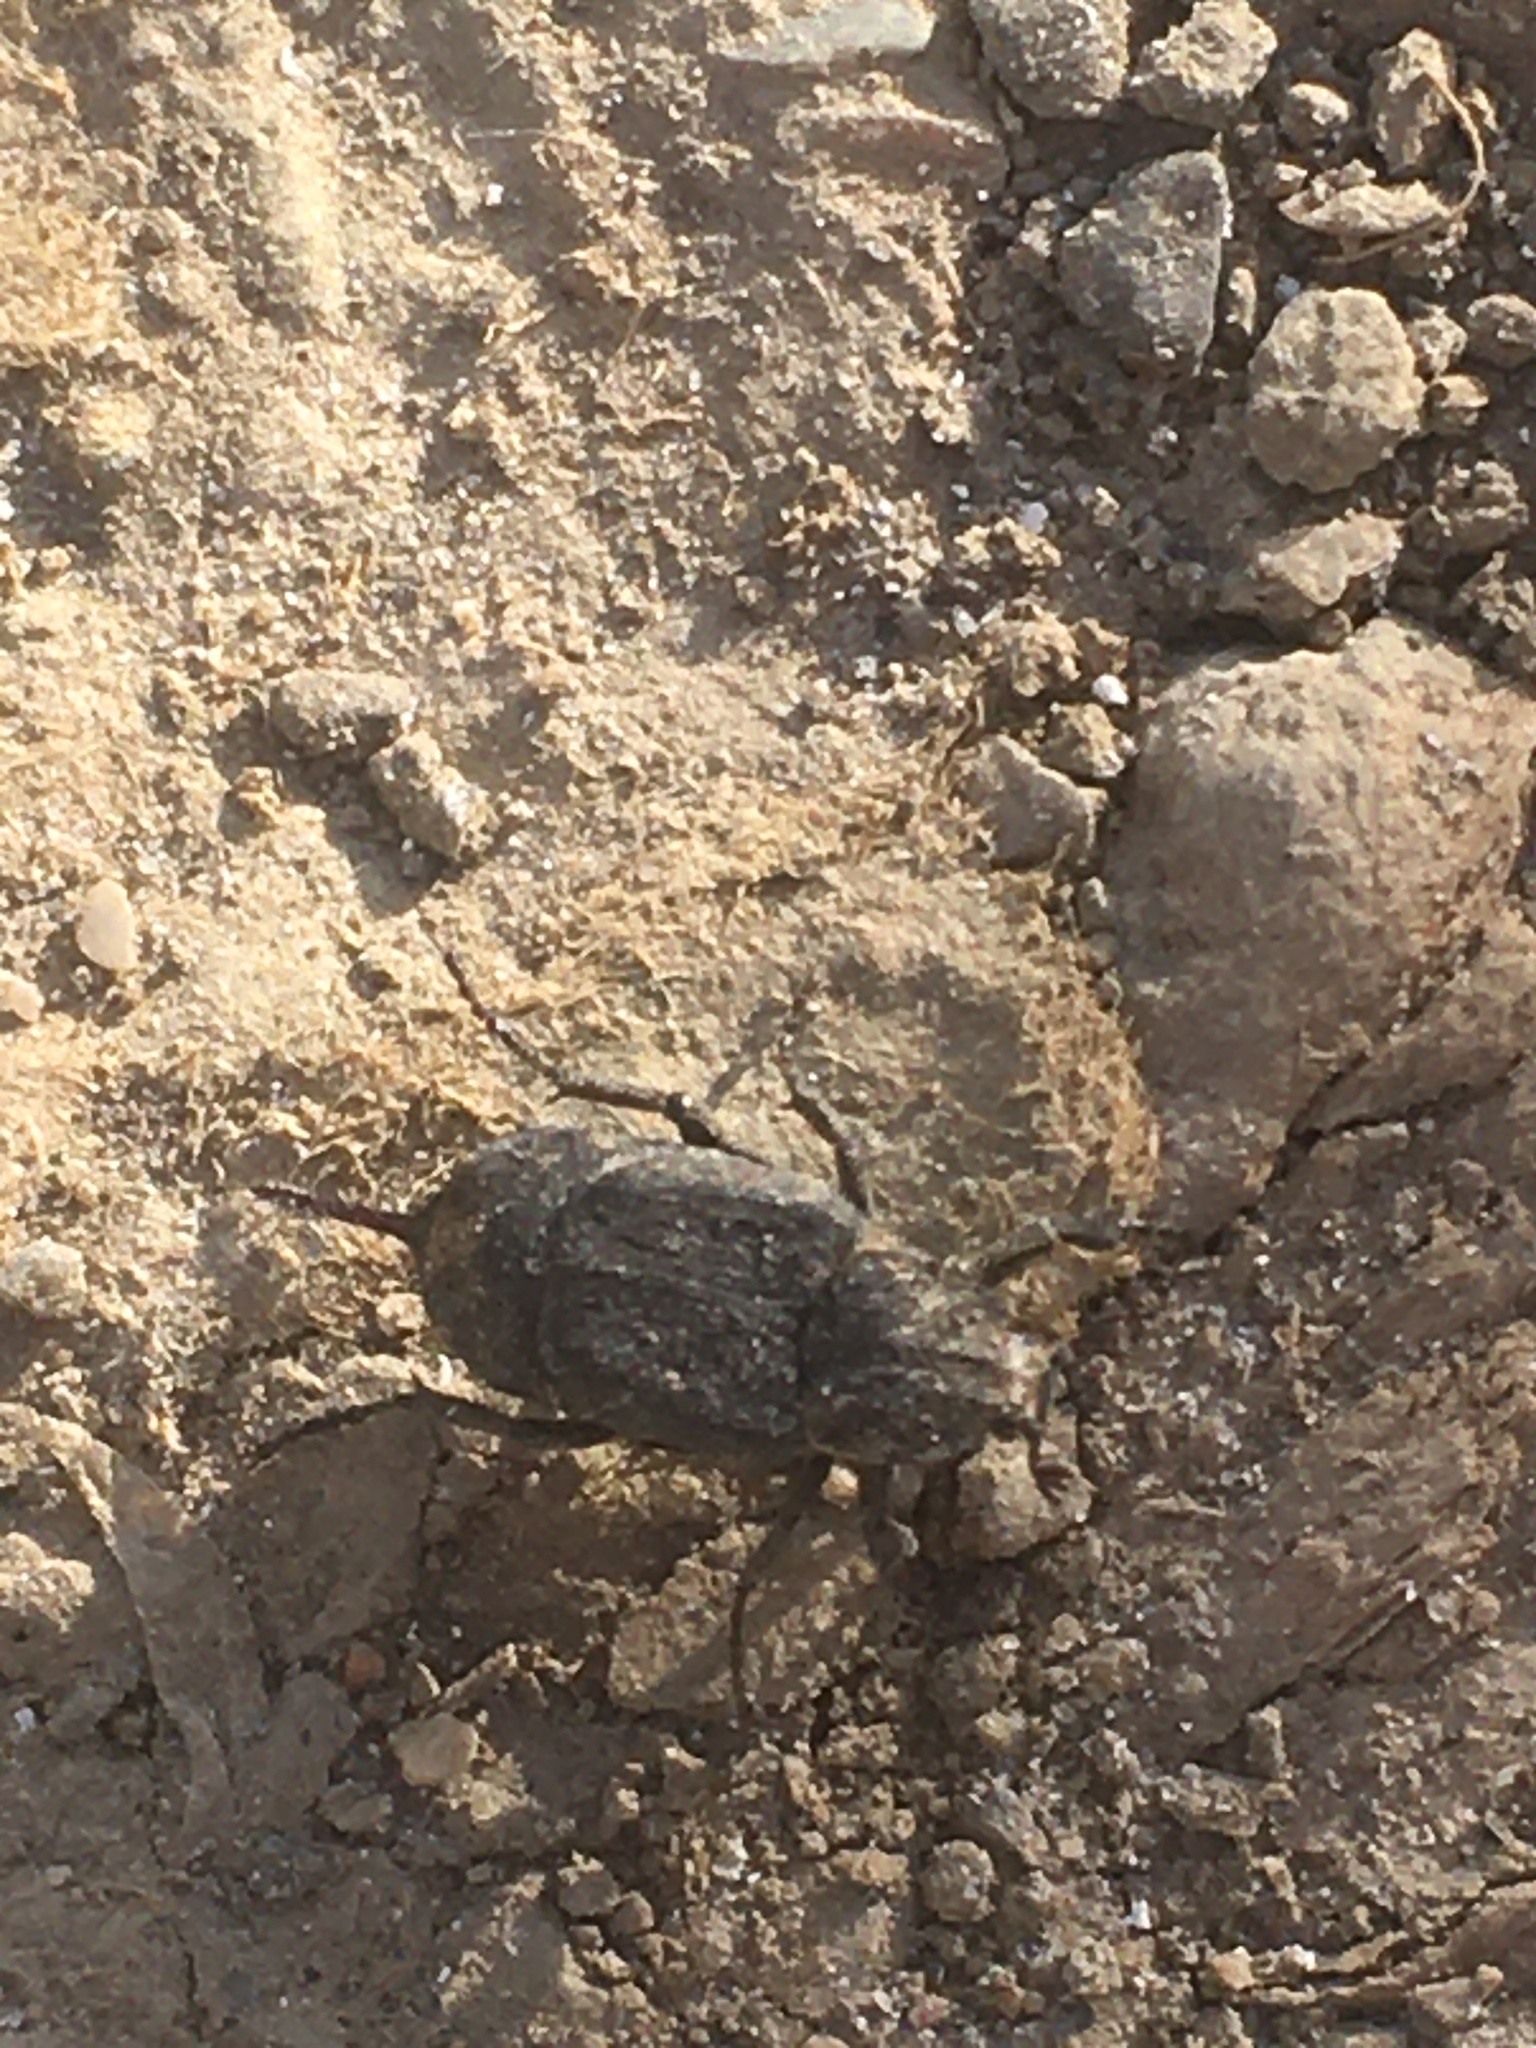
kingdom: Animalia
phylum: Arthropoda
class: Insecta
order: Coleoptera
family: Scarabaeidae
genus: Valgus
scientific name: Valgus hemipterus
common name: Bug flower chafer
